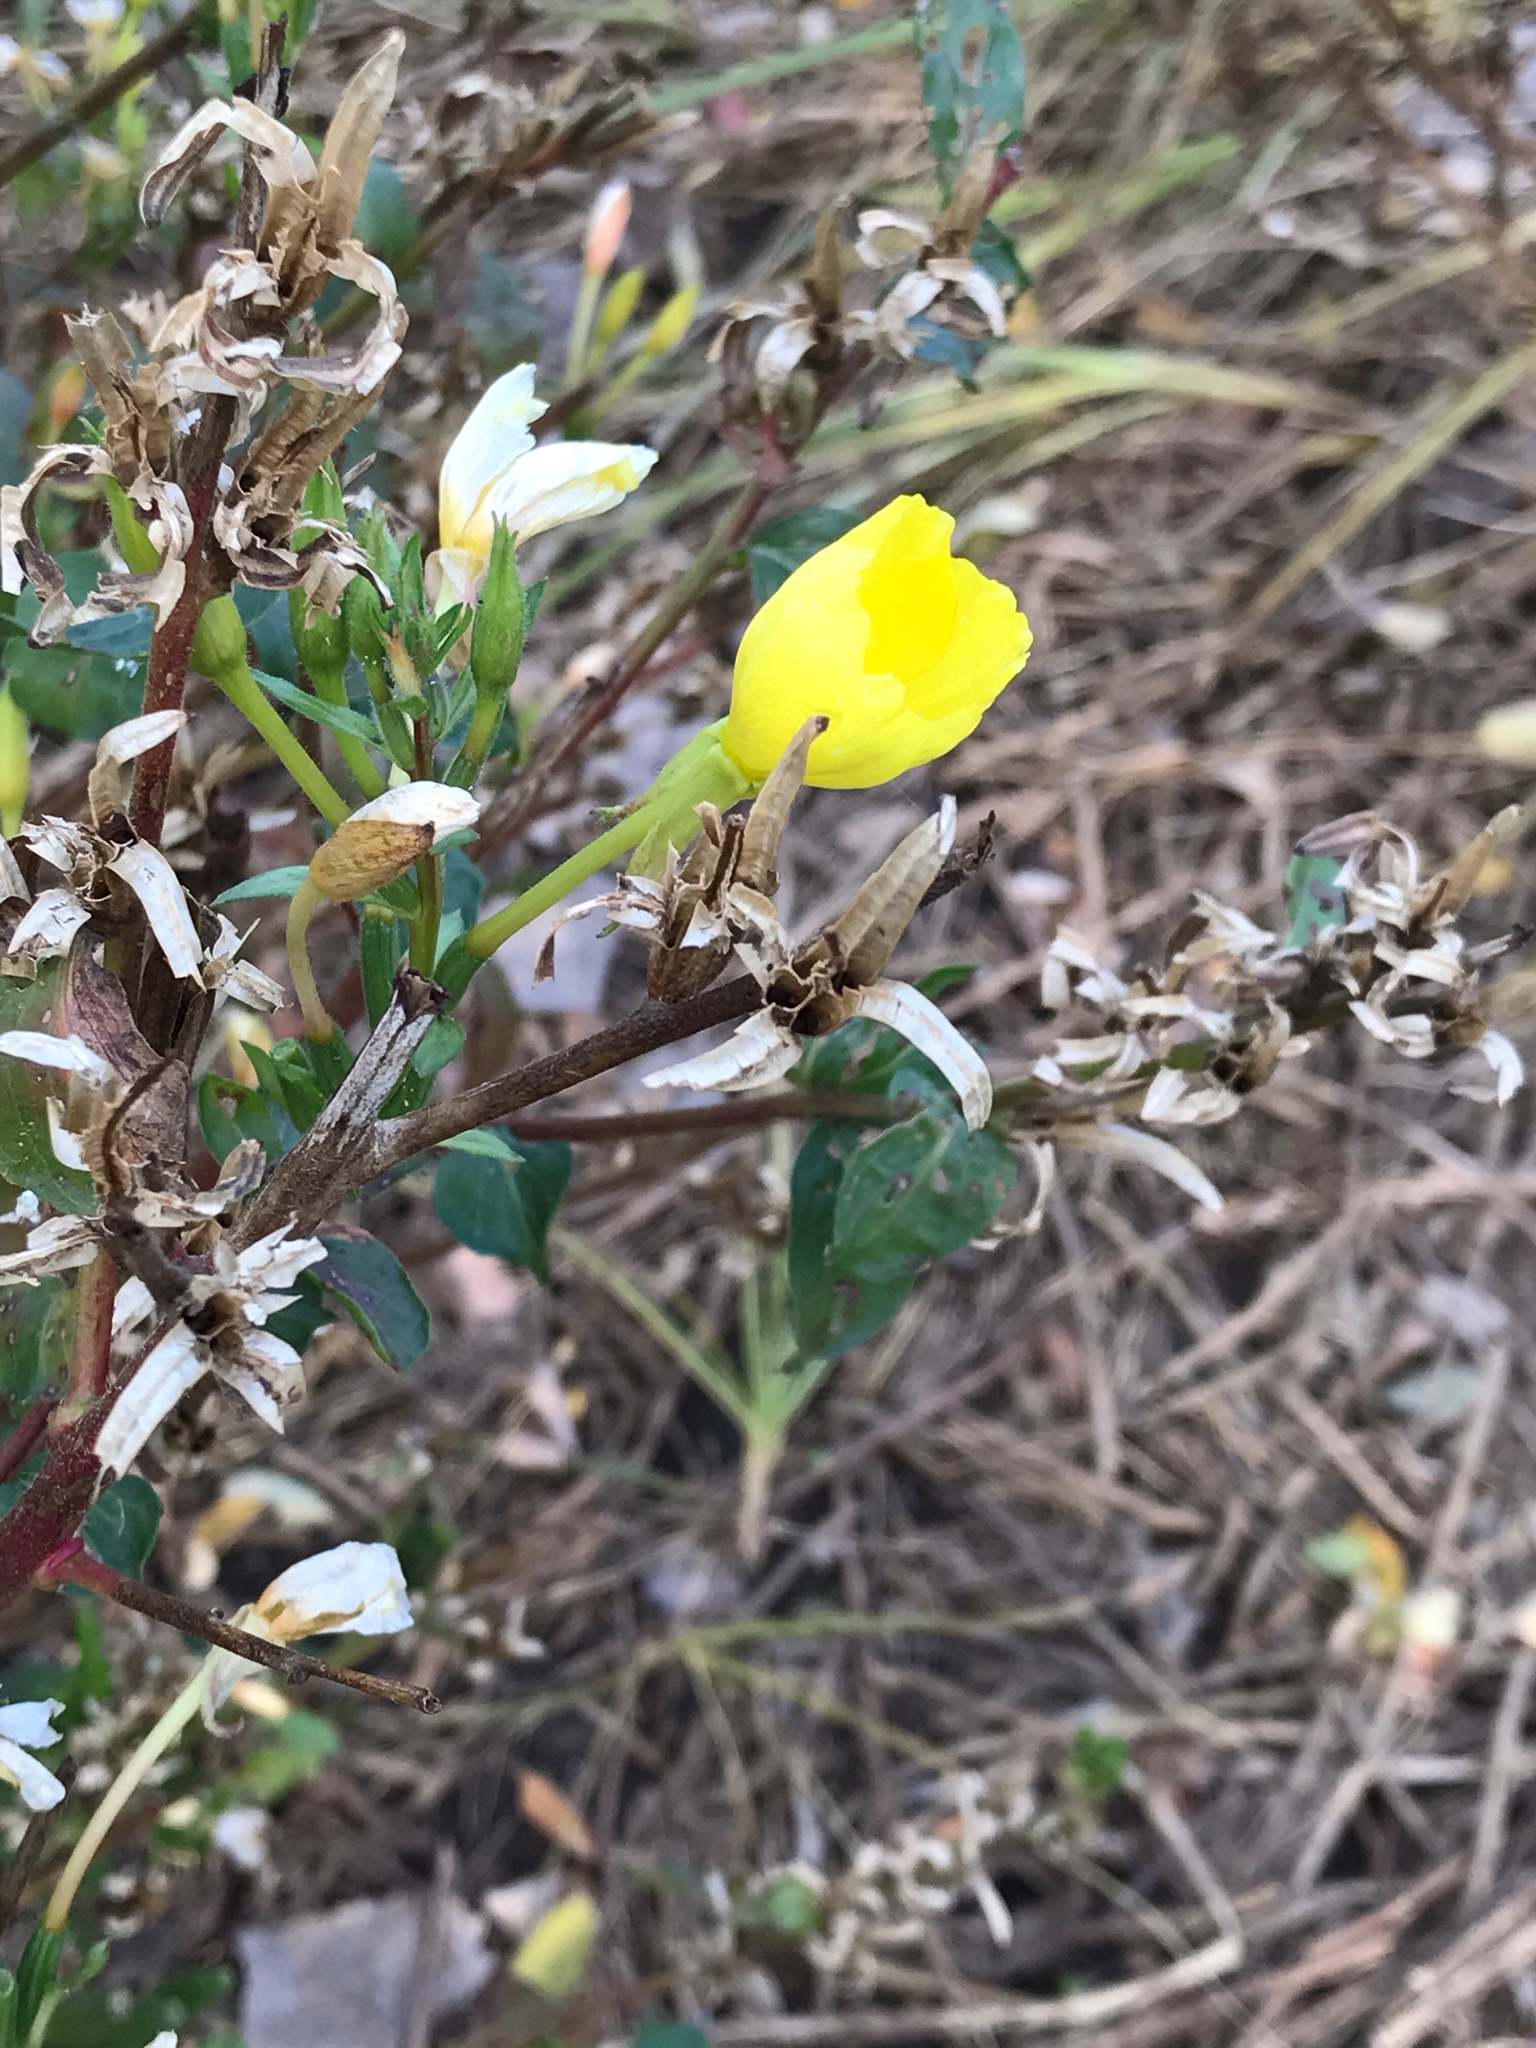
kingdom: Plantae
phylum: Tracheophyta
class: Magnoliopsida
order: Myrtales
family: Onagraceae
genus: Oenothera
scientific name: Oenothera biennis
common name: Common evening-primrose
